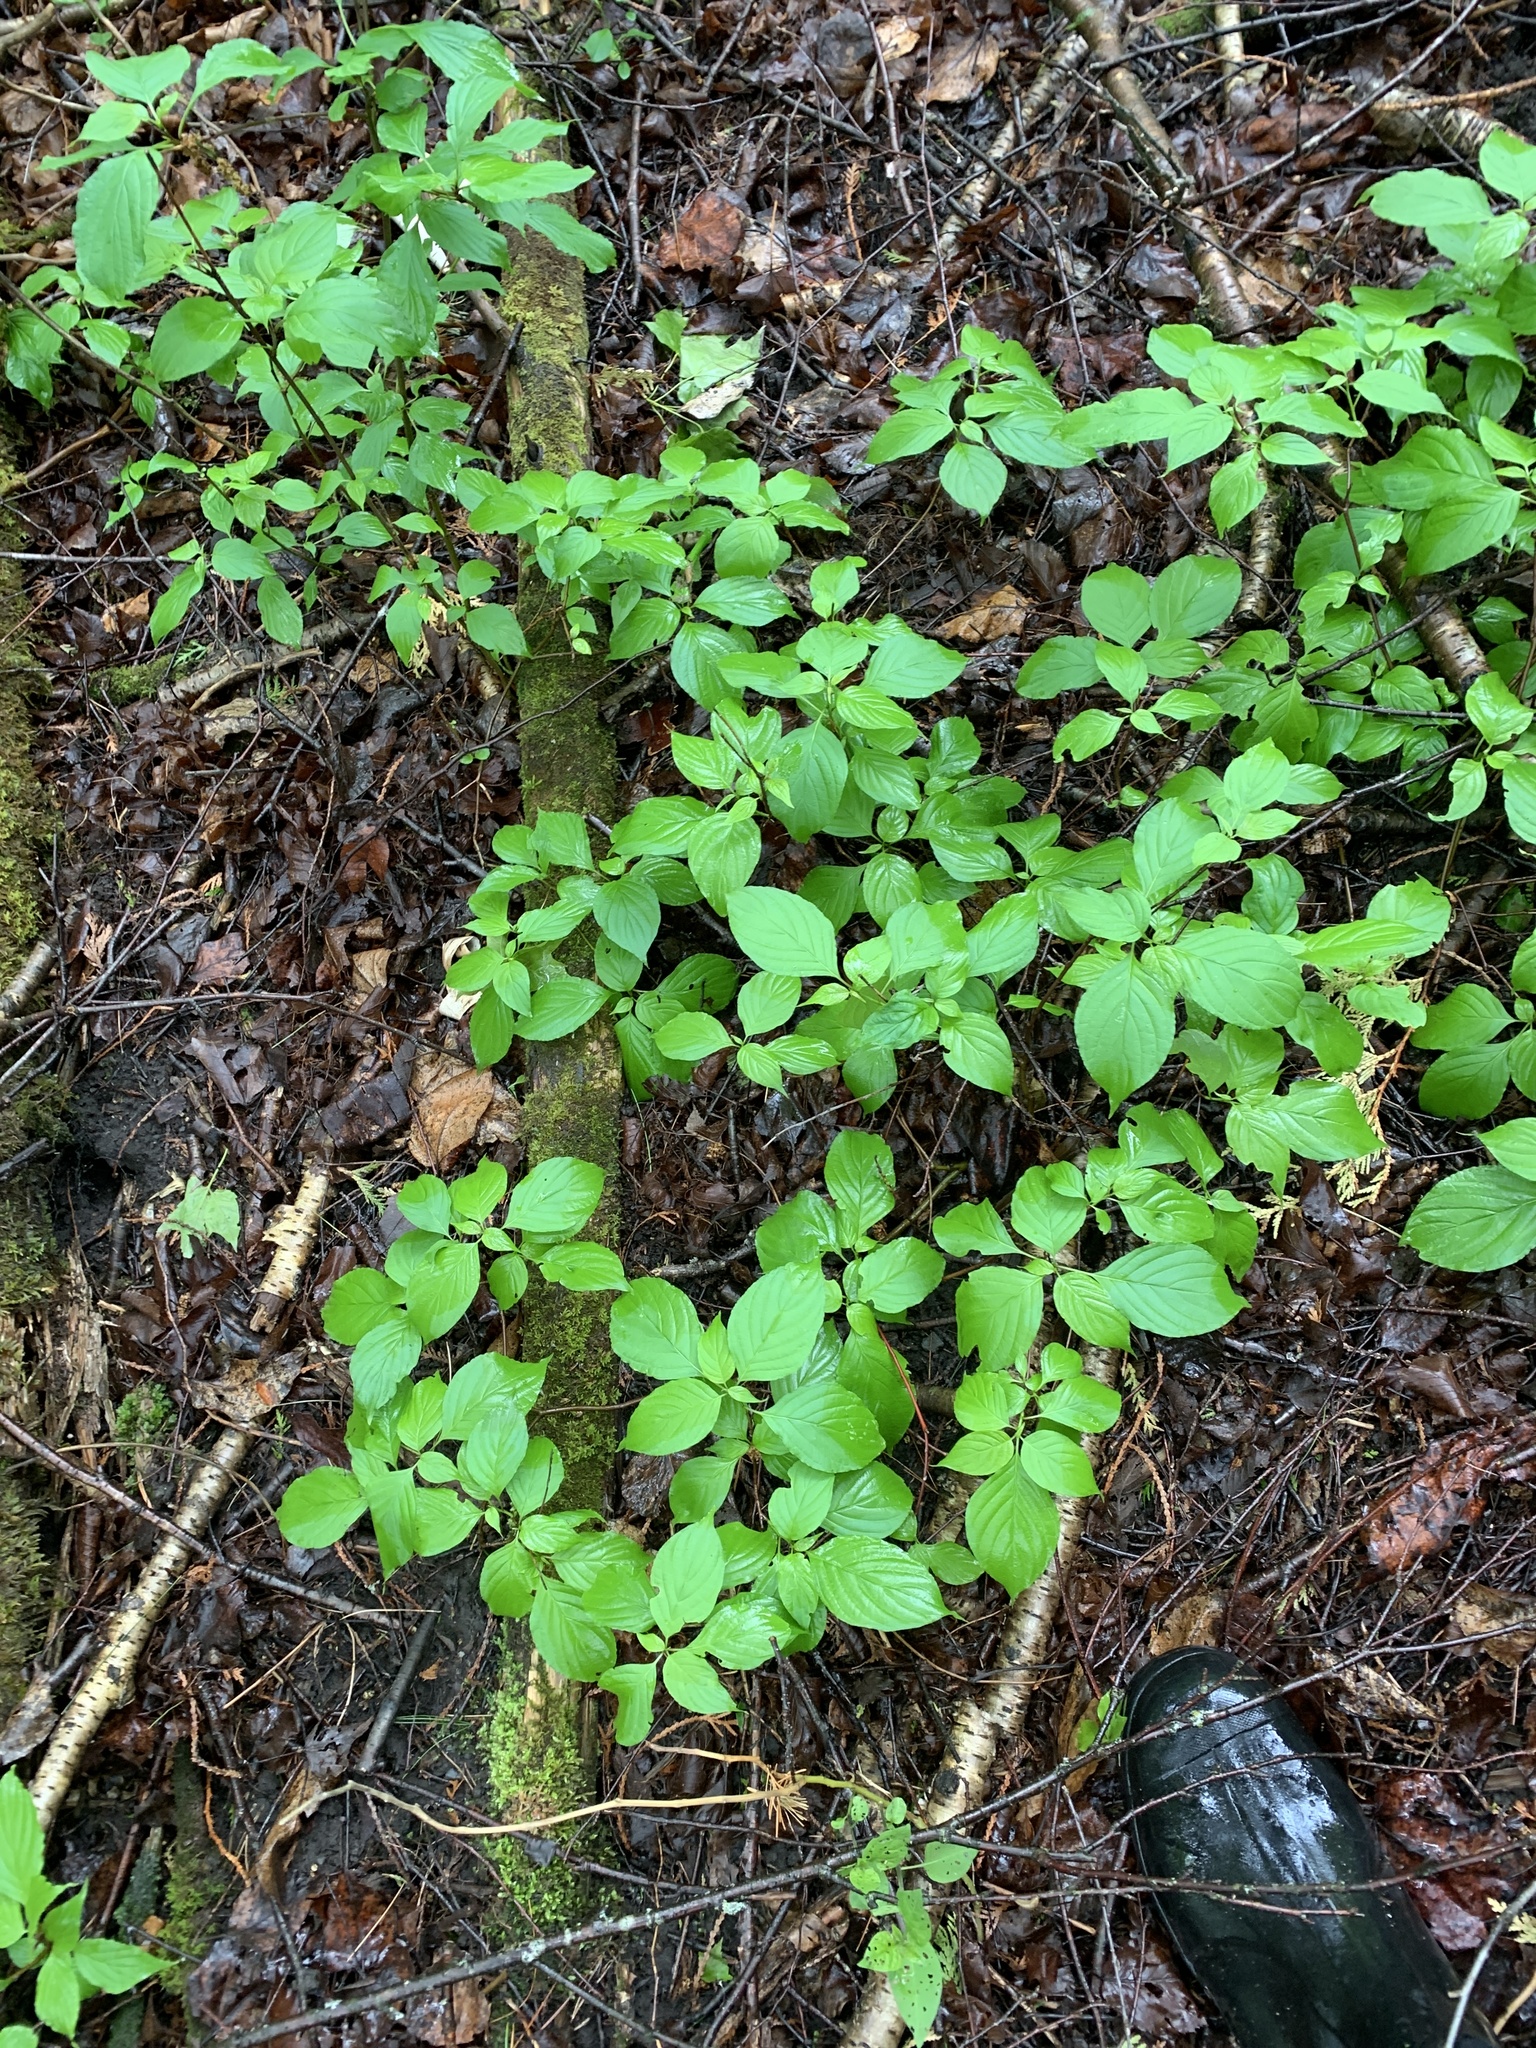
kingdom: Plantae
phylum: Tracheophyta
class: Magnoliopsida
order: Cornales
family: Cornaceae
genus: Cornus
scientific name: Cornus alternifolia
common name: Pagoda dogwood
